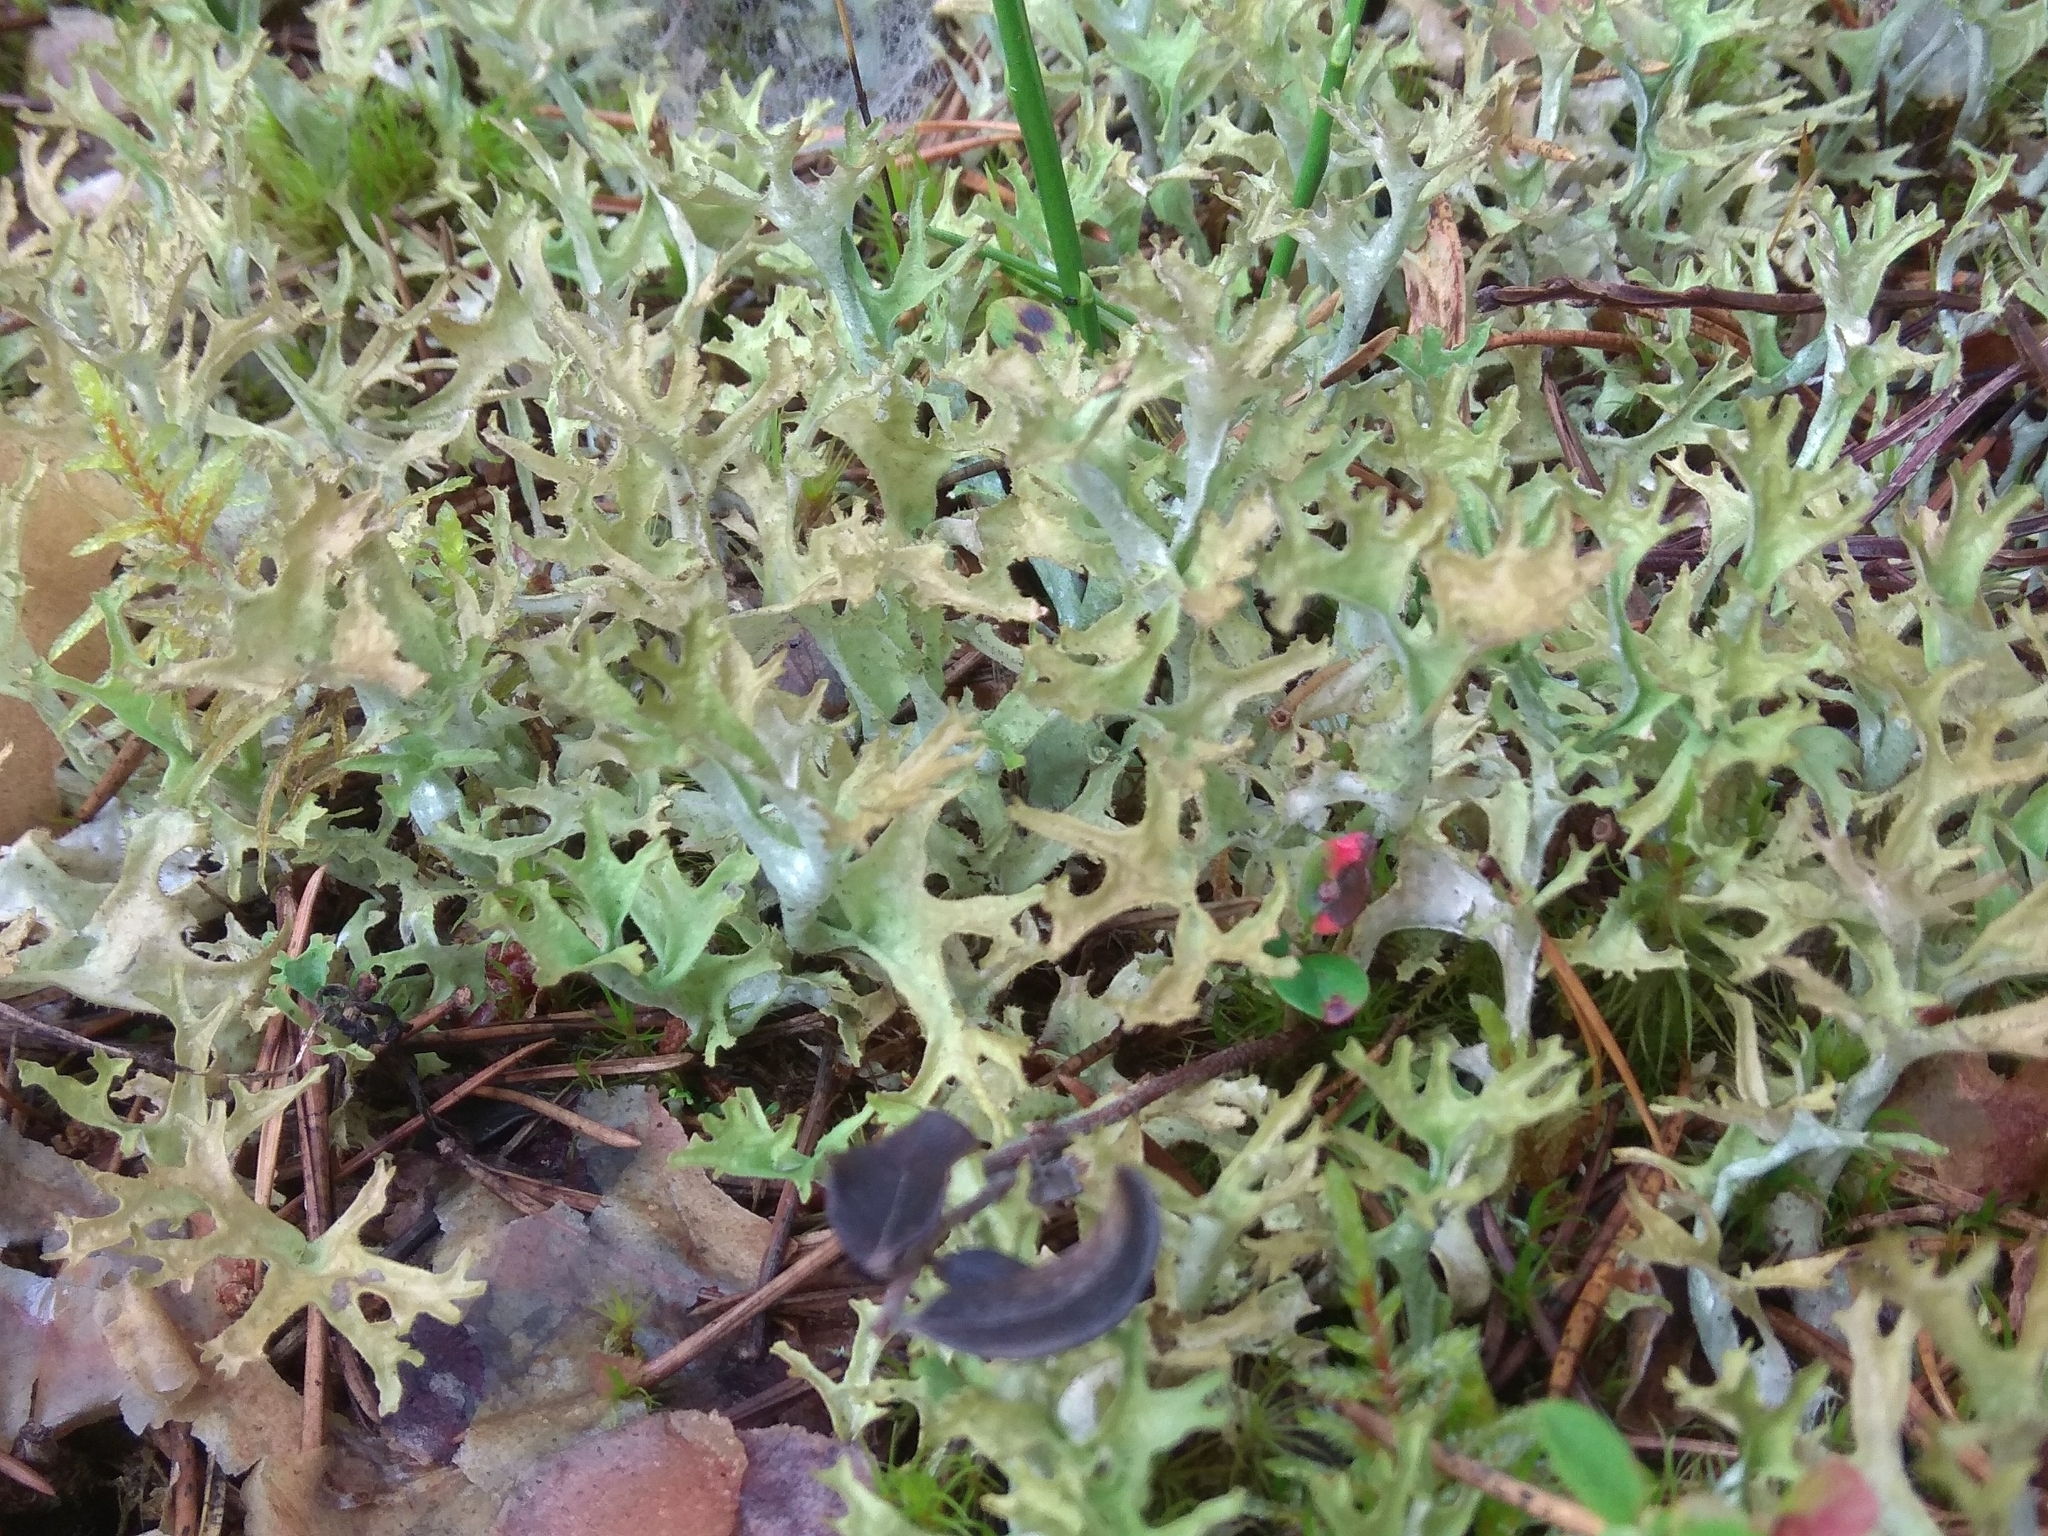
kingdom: Fungi
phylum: Ascomycota
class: Lecanoromycetes
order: Lecanorales
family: Parmeliaceae
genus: Cetraria
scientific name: Cetraria islandica
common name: Iceland lichen
